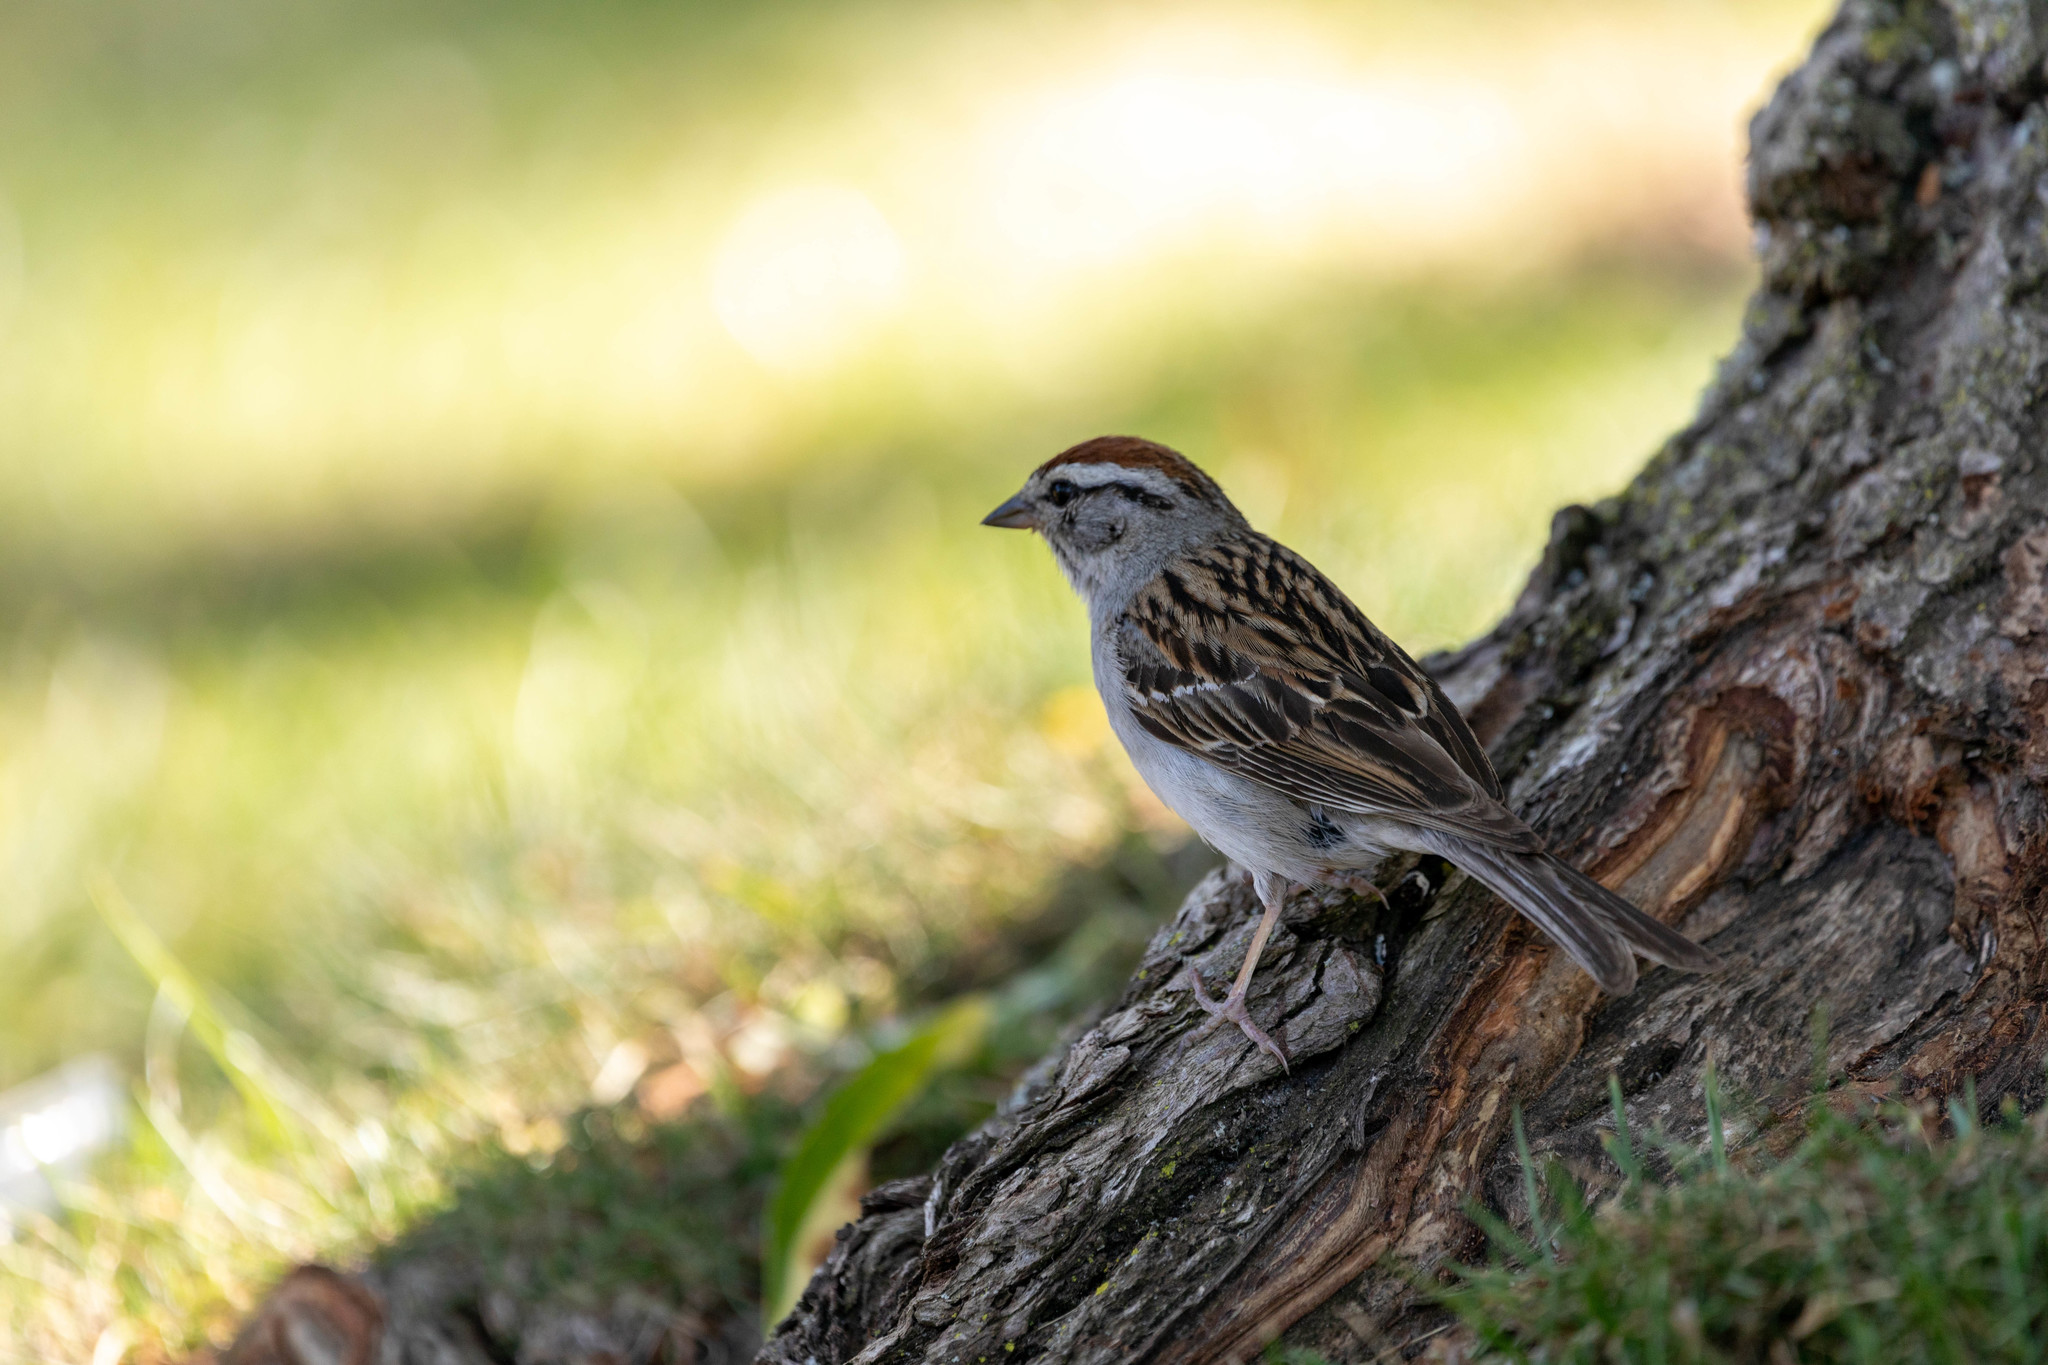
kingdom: Animalia
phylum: Chordata
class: Aves
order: Passeriformes
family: Passerellidae
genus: Spizella
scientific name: Spizella passerina
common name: Chipping sparrow
